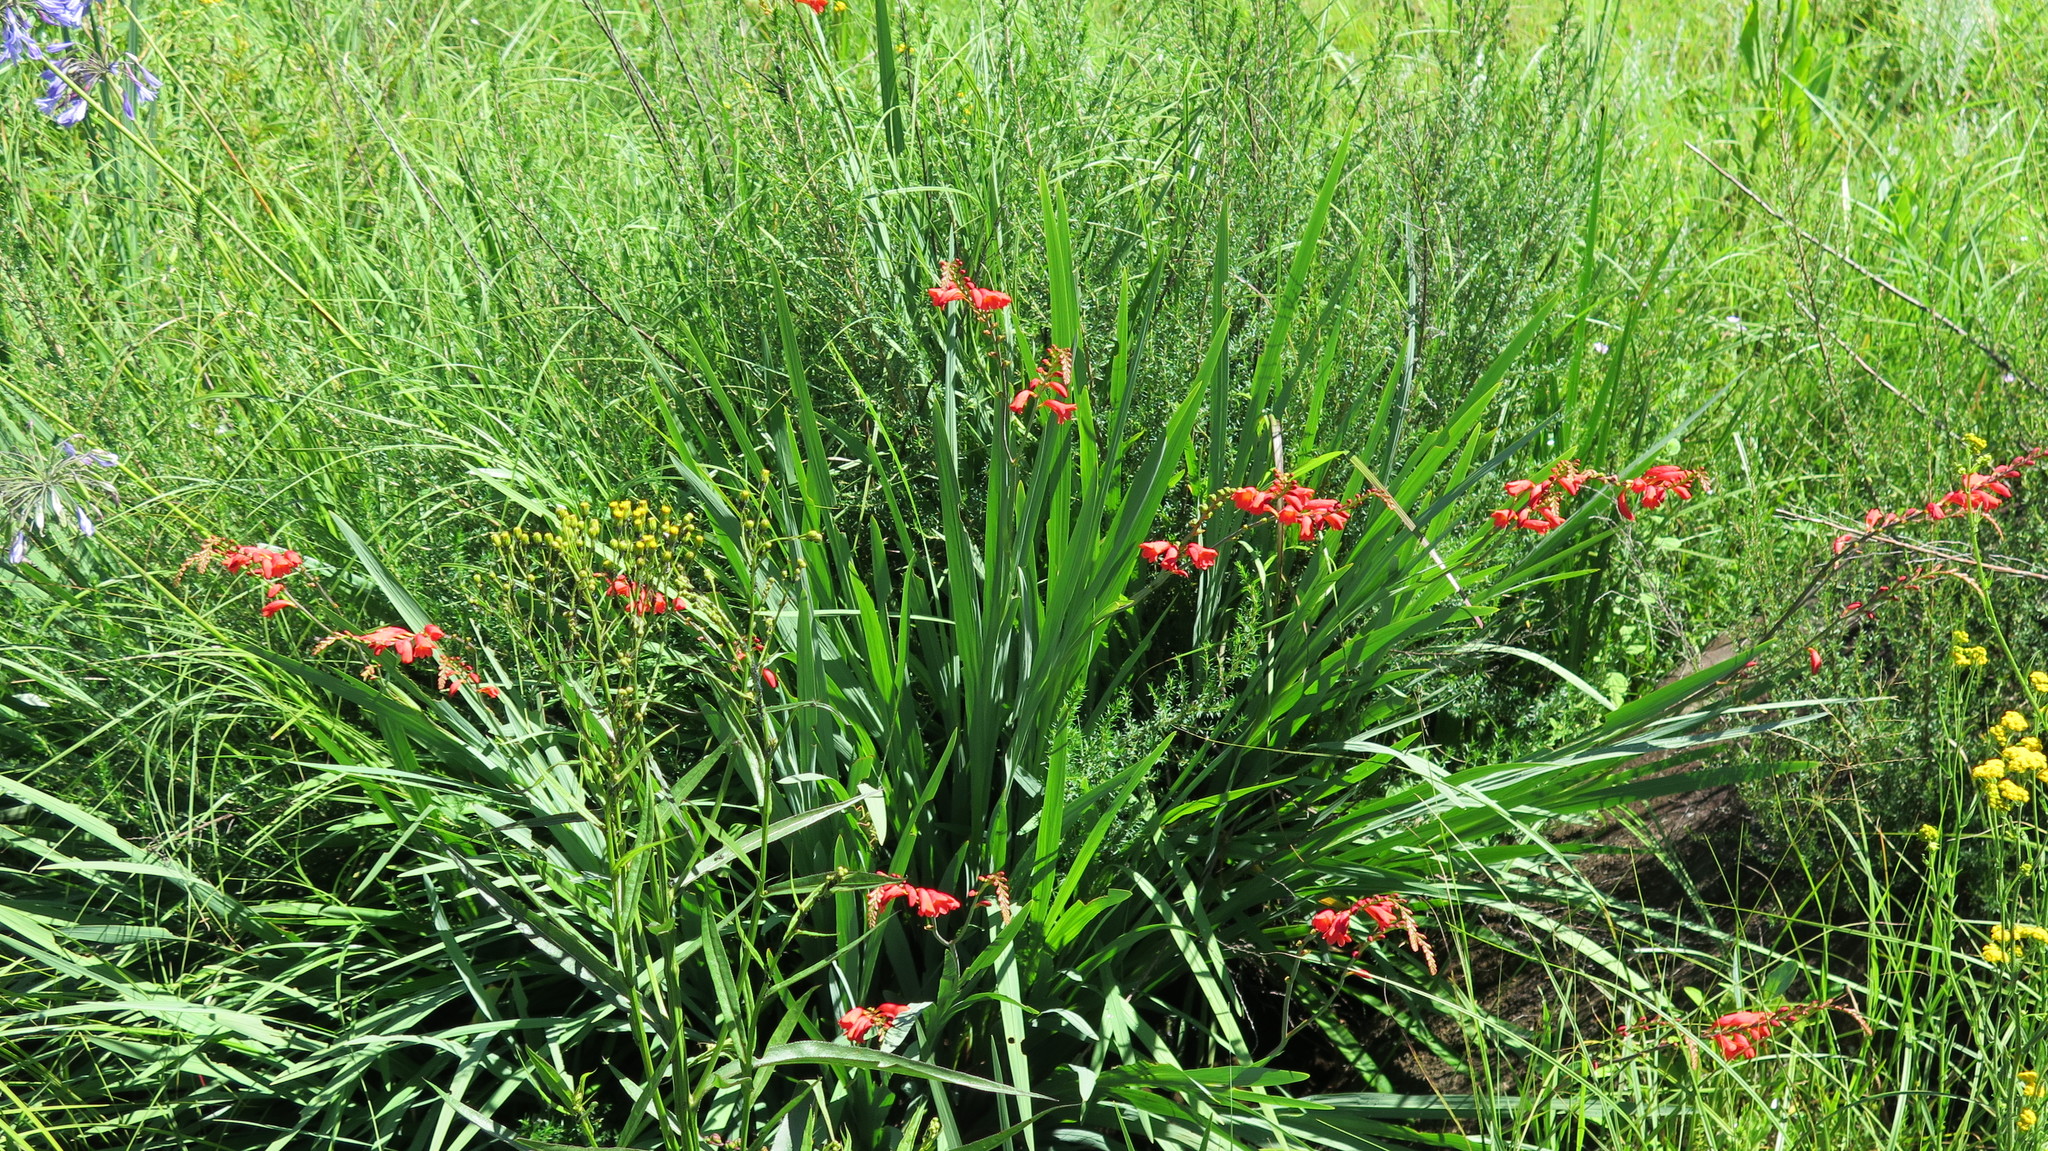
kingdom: Plantae
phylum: Tracheophyta
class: Liliopsida
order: Asparagales
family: Iridaceae
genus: Crocosmia
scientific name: Crocosmia pottsii
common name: Pott's montbretia
